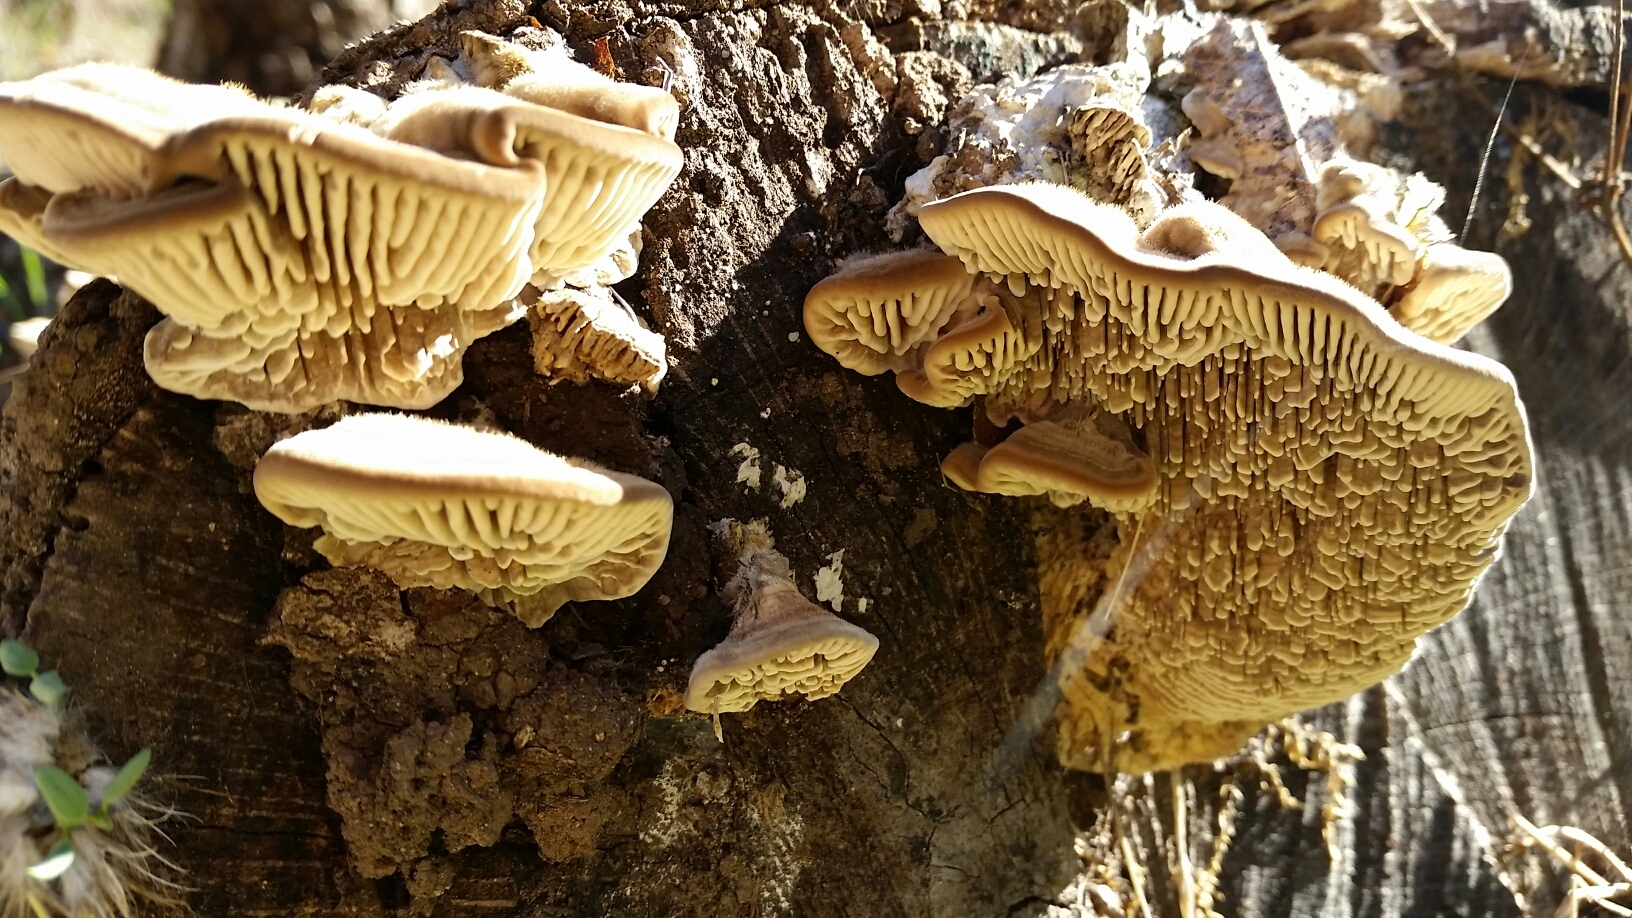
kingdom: Fungi
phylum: Basidiomycota
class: Agaricomycetes
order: Polyporales
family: Polyporaceae
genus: Lenzites
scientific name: Lenzites betulinus
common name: Birch mazegill
